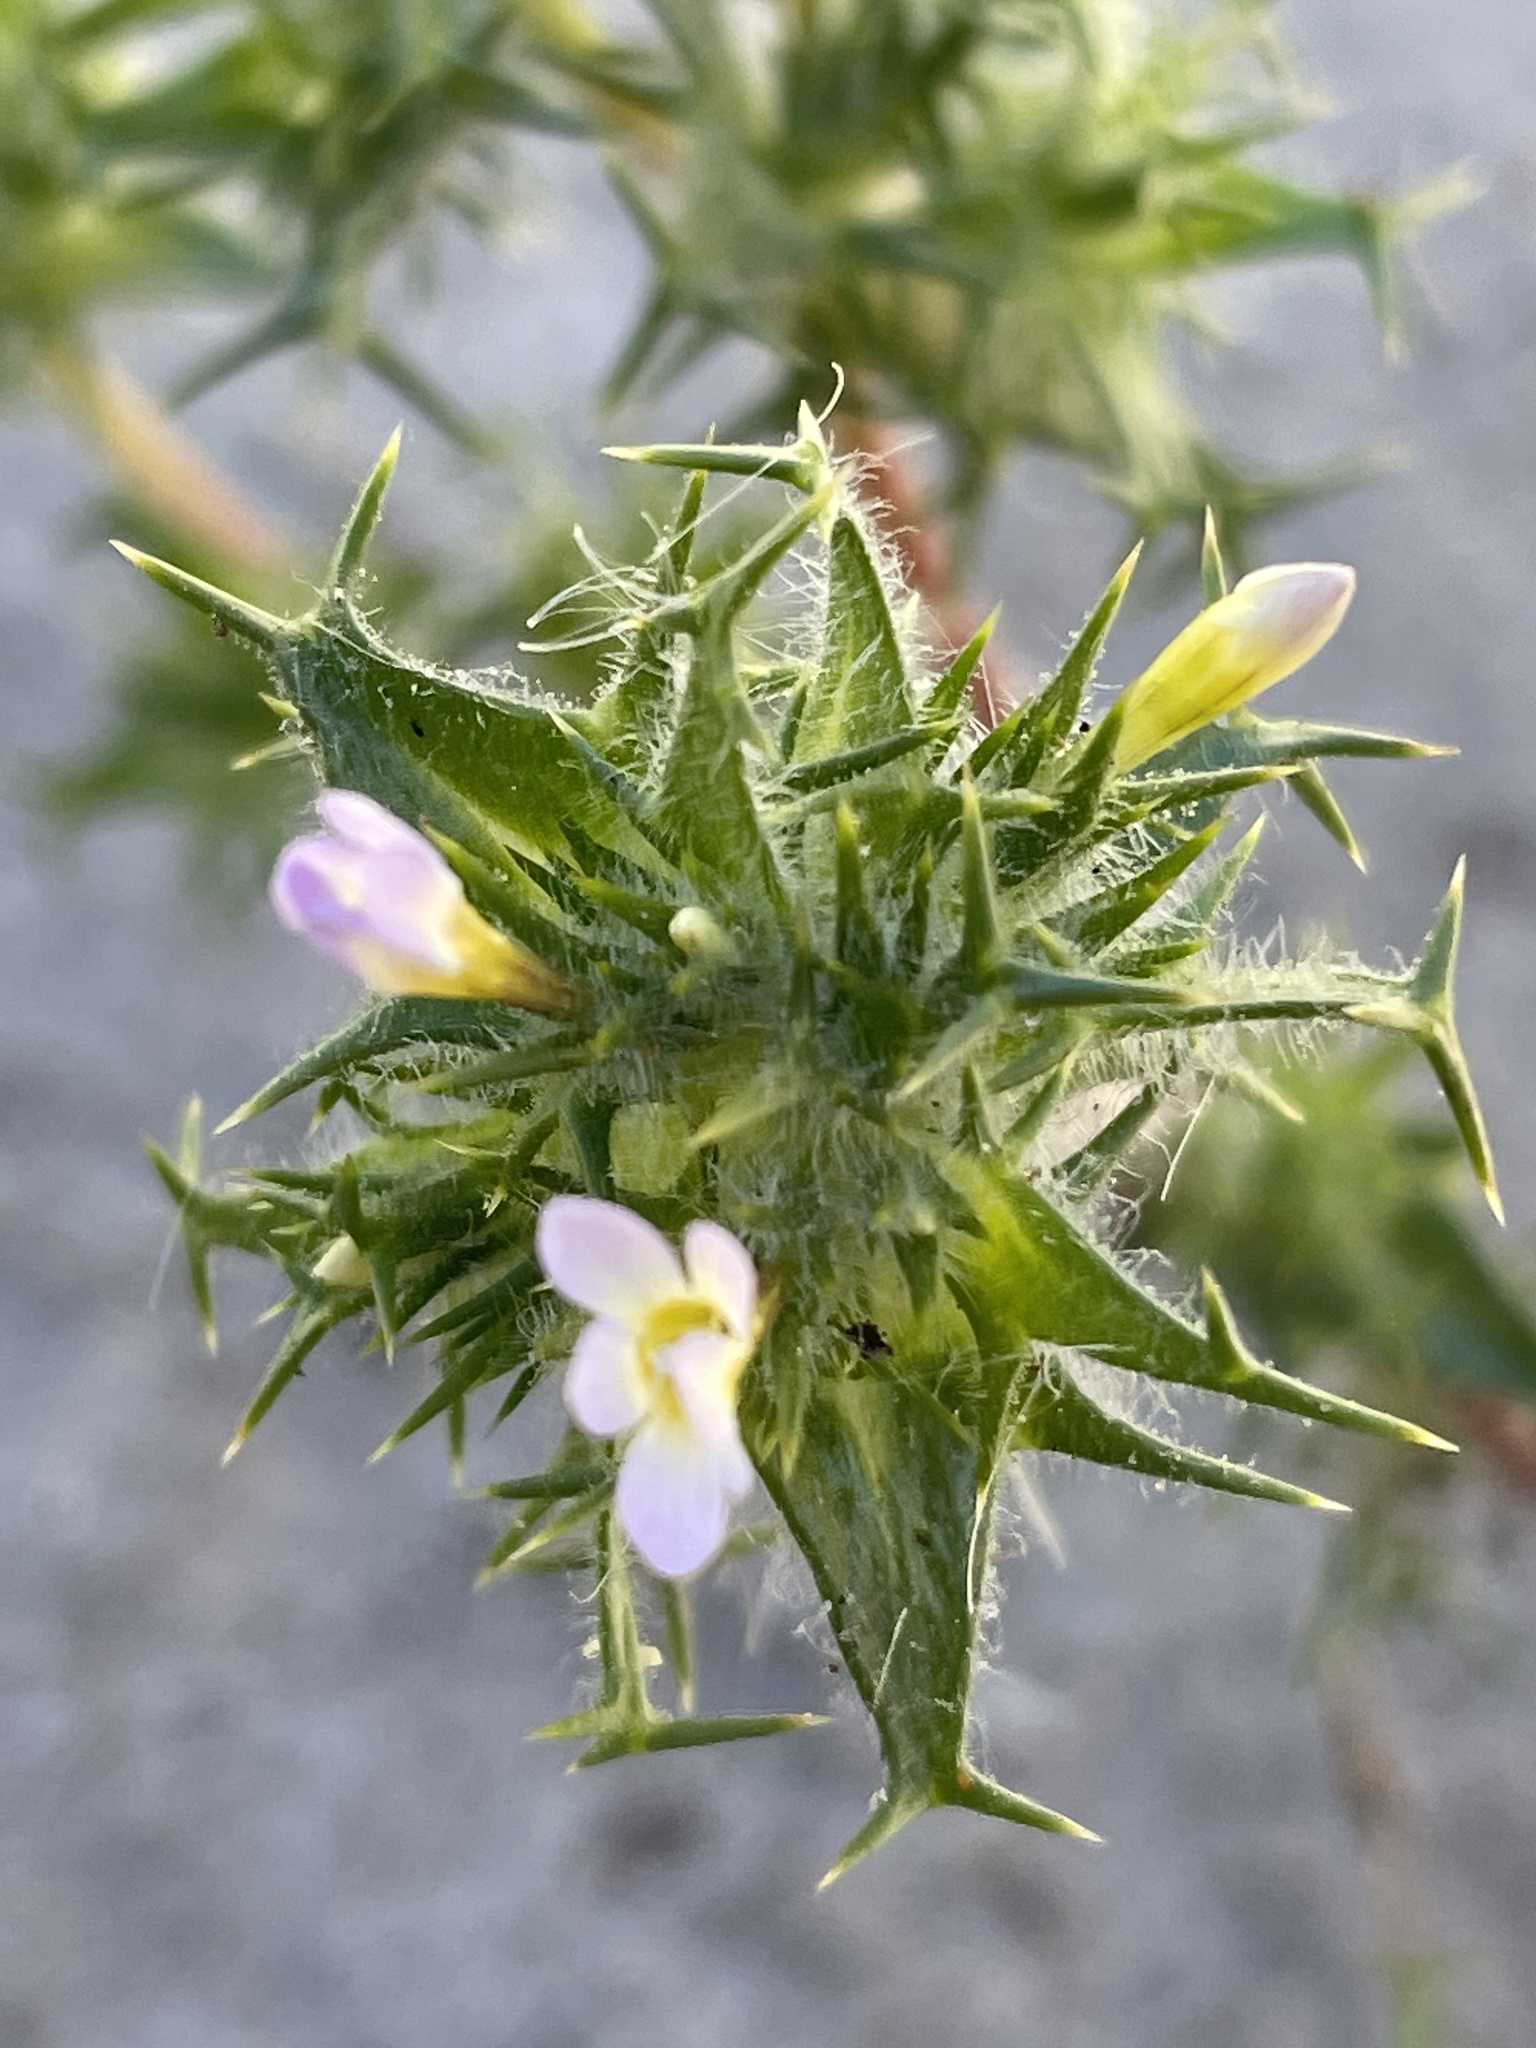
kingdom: Plantae
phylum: Tracheophyta
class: Magnoliopsida
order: Ericales
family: Polemoniaceae
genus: Navarretia
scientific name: Navarretia hamata
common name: Hooked navarretia
